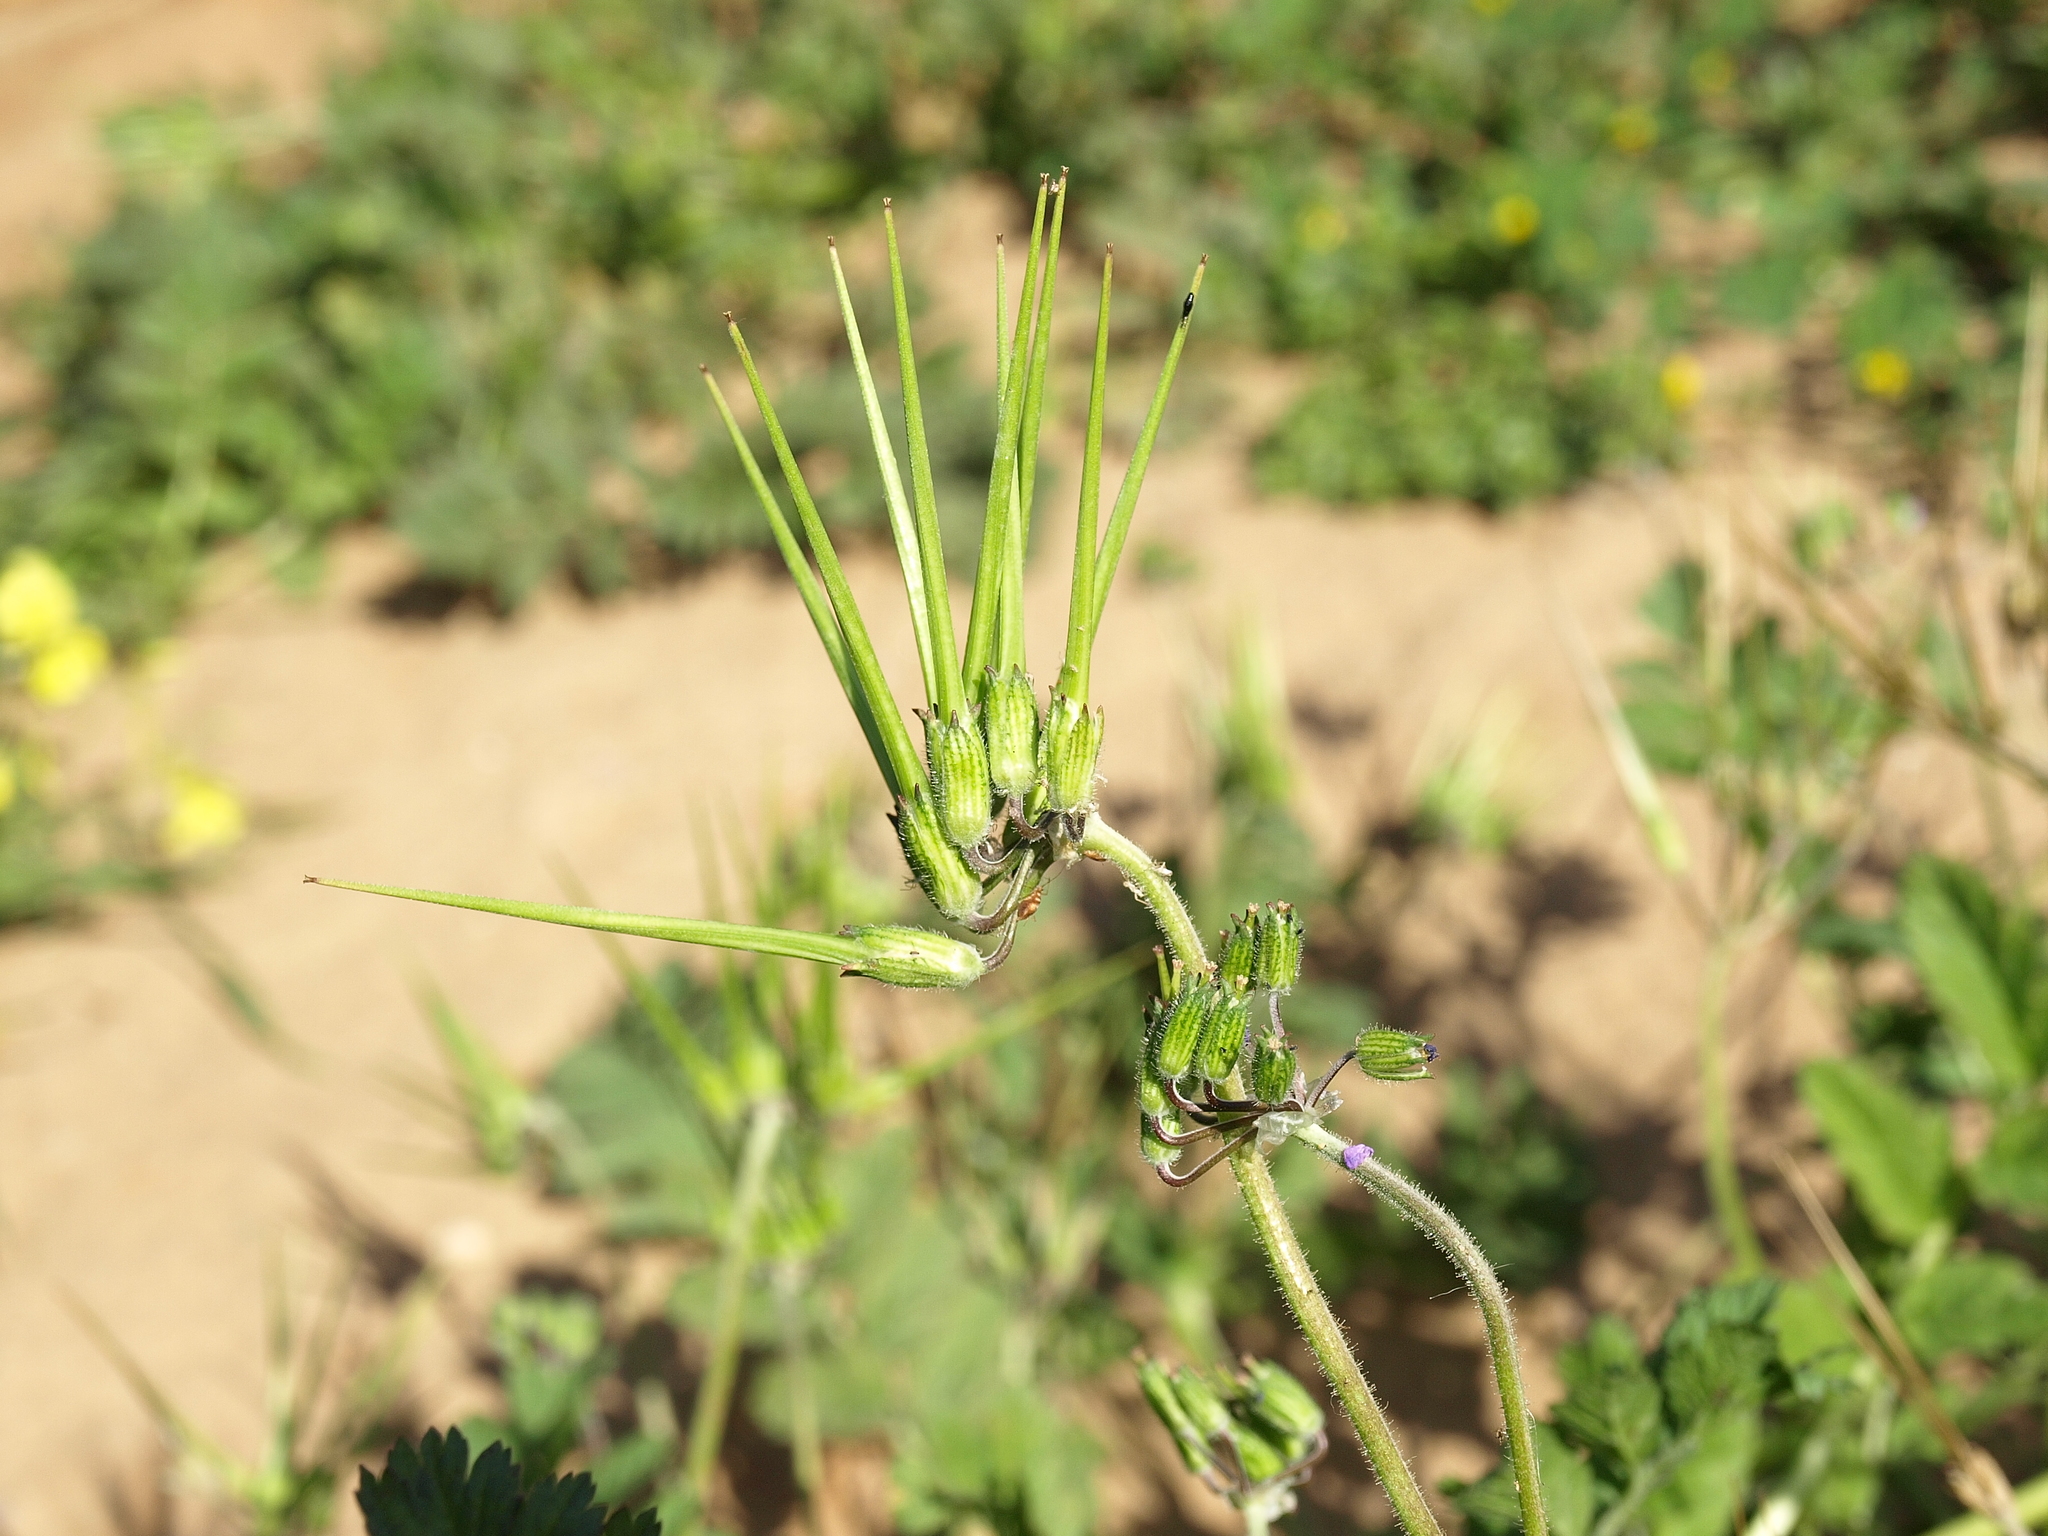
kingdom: Plantae
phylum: Tracheophyta
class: Magnoliopsida
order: Geraniales
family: Geraniaceae
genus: Erodium
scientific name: Erodium moschatum
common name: Musk stork's-bill
